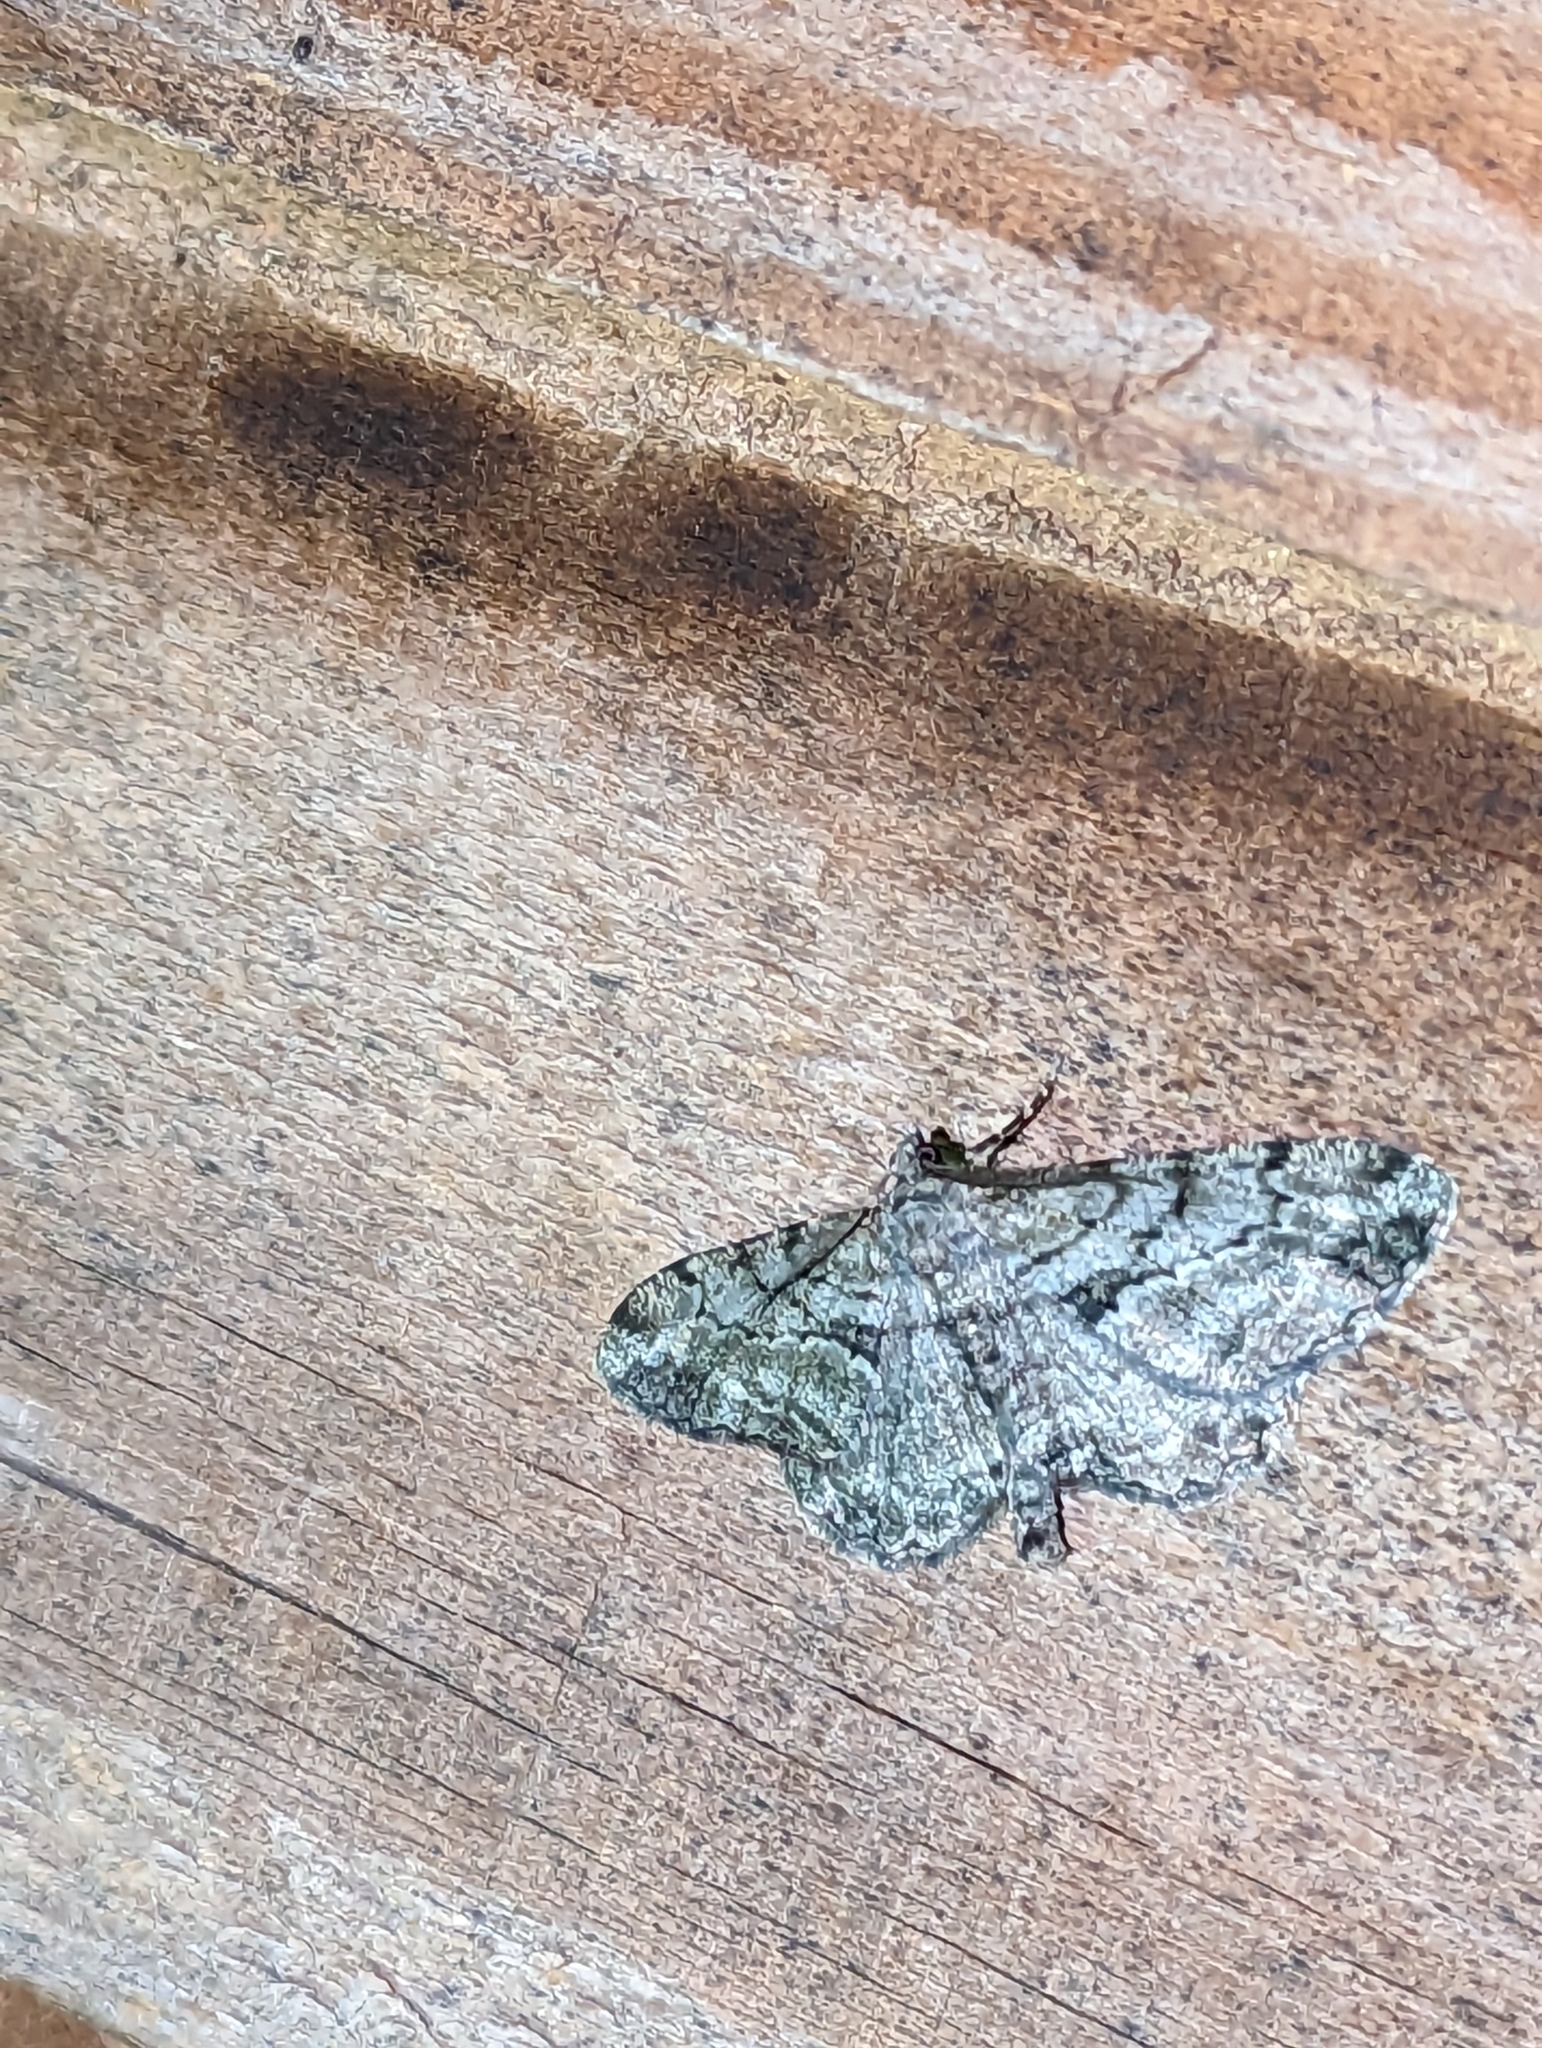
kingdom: Animalia
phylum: Arthropoda
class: Insecta
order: Lepidoptera
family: Geometridae
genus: Peribatodes
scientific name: Peribatodes rhomboidaria
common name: Willow beauty
